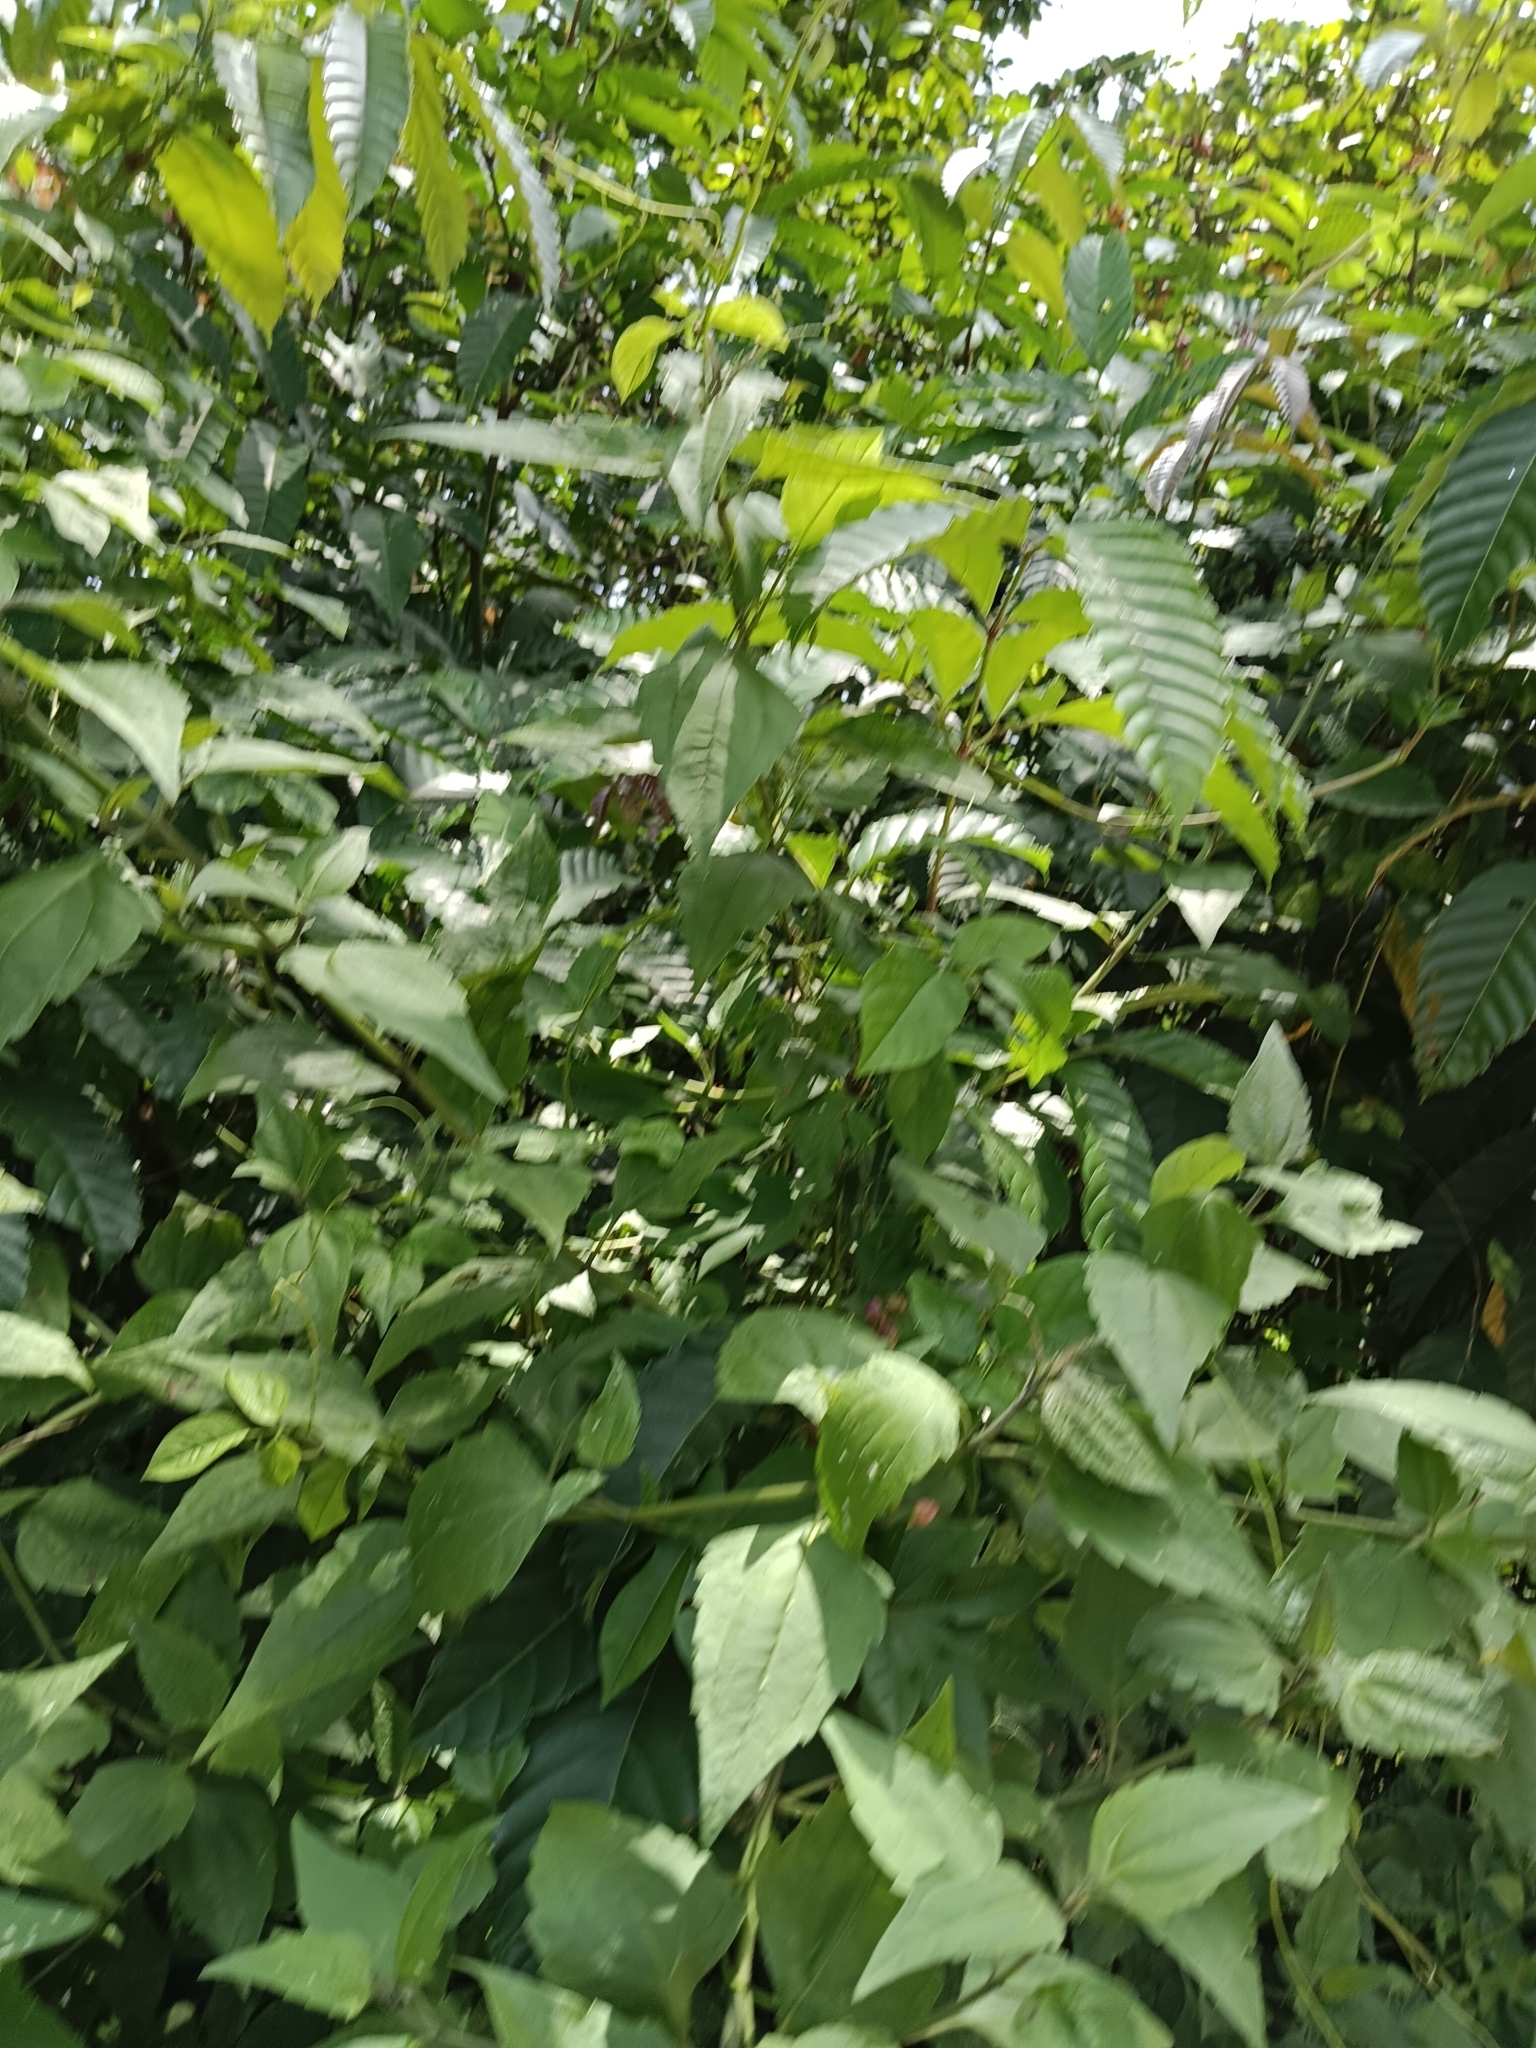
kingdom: Plantae
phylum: Tracheophyta
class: Magnoliopsida
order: Asterales
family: Asteraceae
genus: Chromolaena
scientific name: Chromolaena odorata
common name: Siamweed
